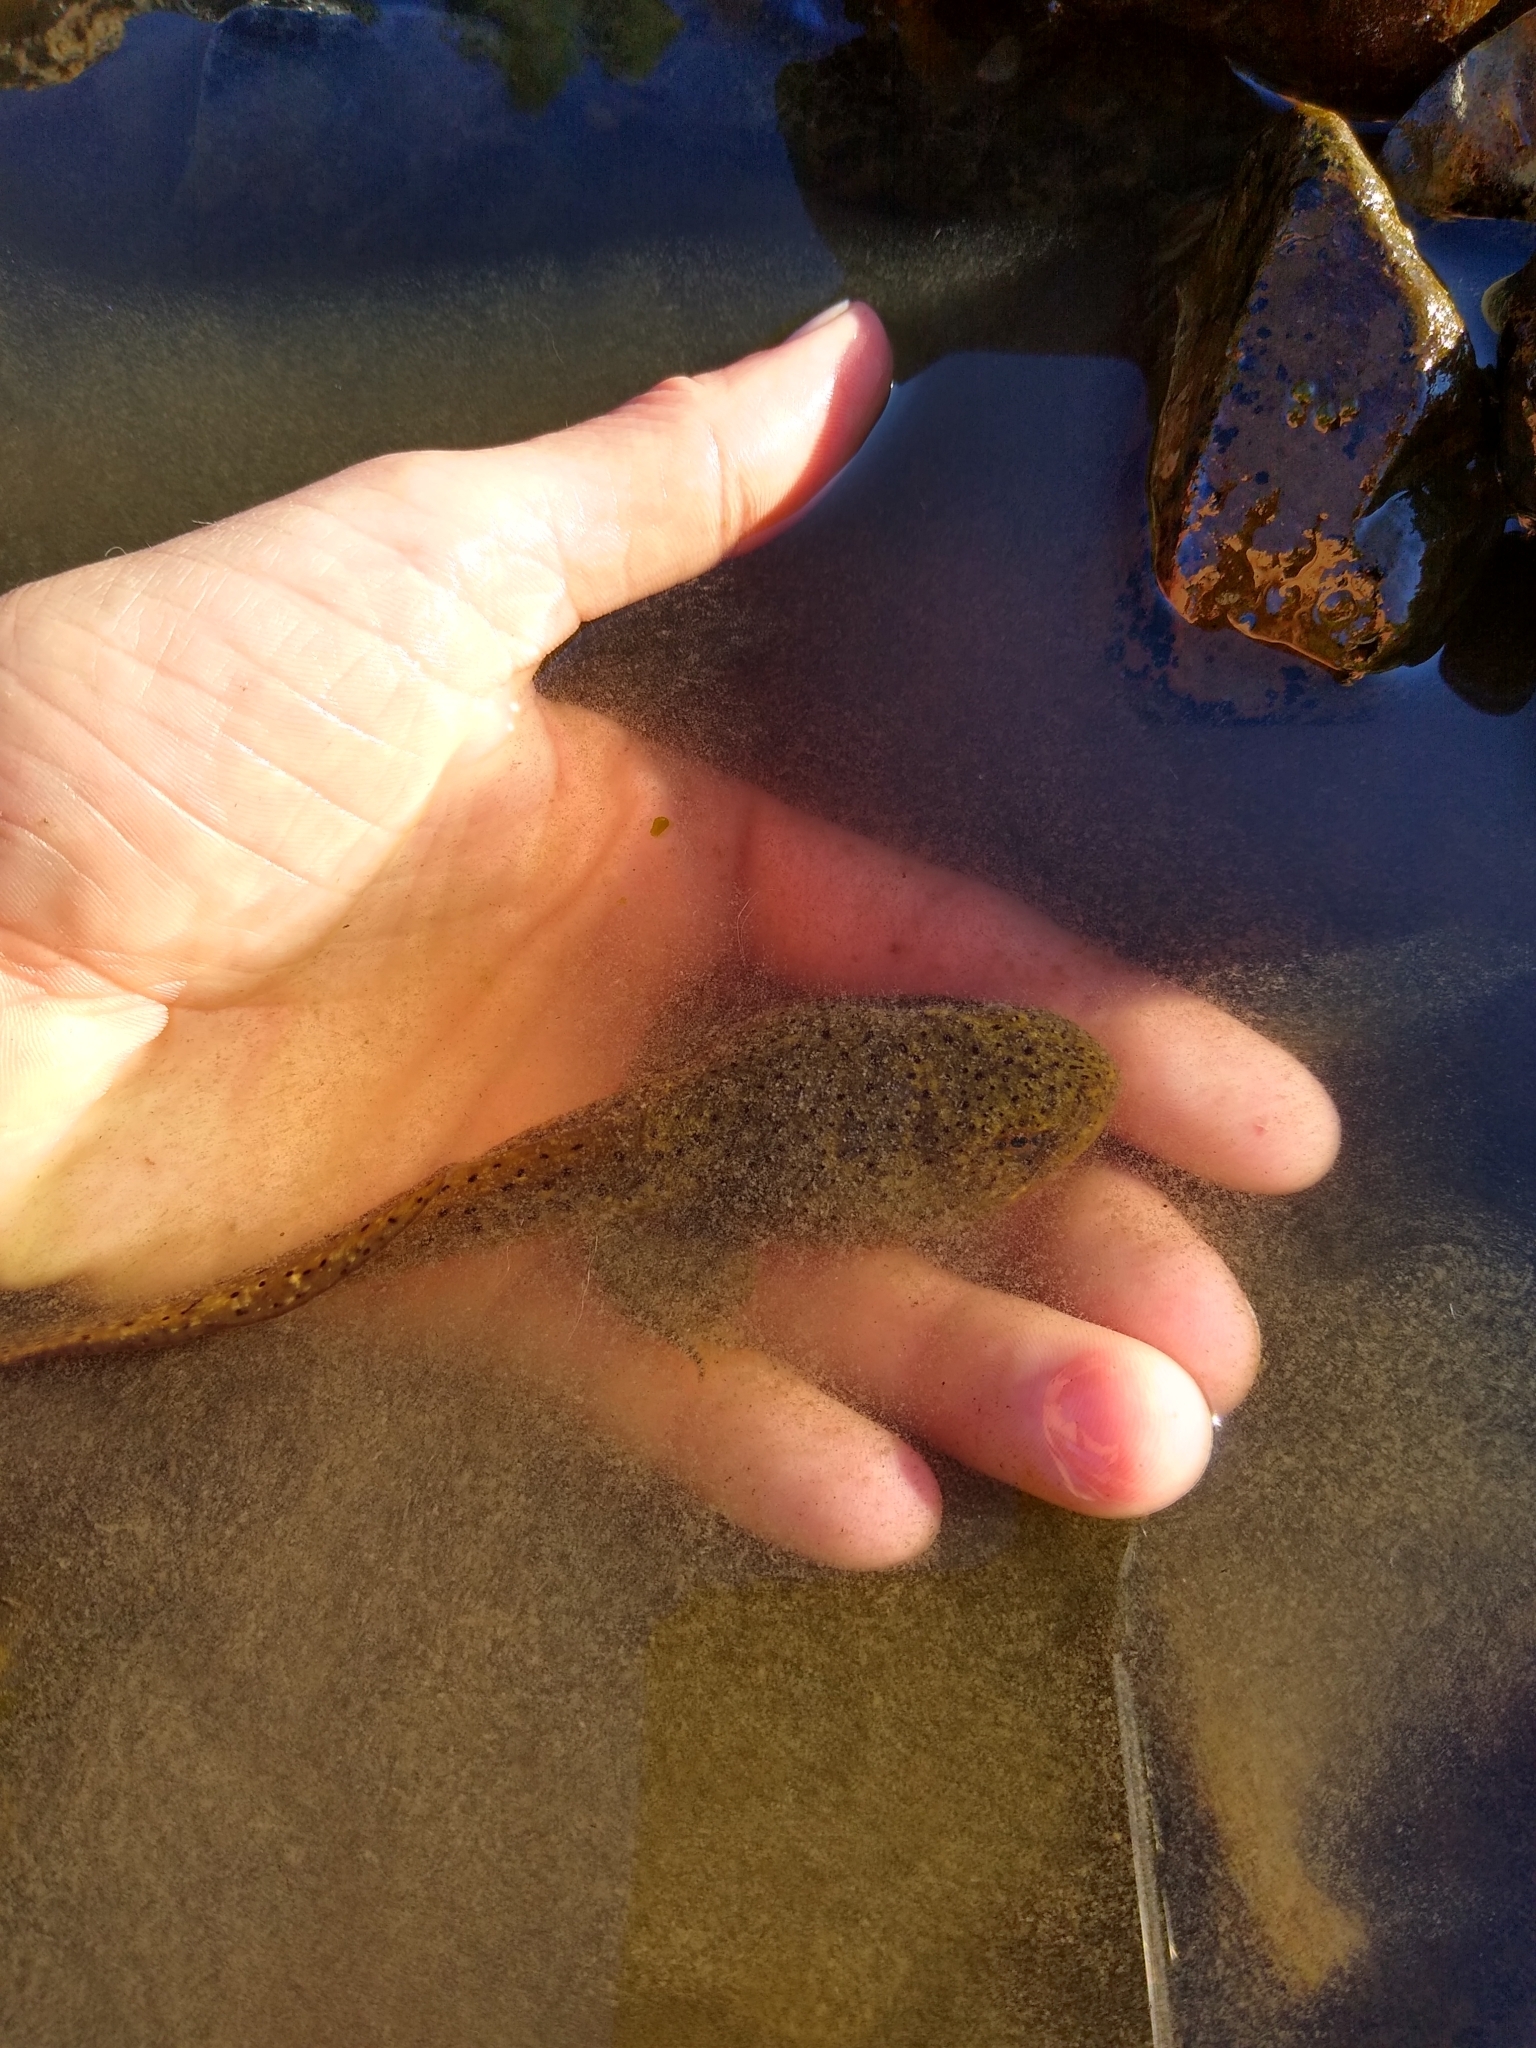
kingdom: Animalia
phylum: Chordata
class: Amphibia
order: Anura
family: Ranidae
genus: Lithobates
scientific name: Lithobates catesbeianus
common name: American bullfrog
